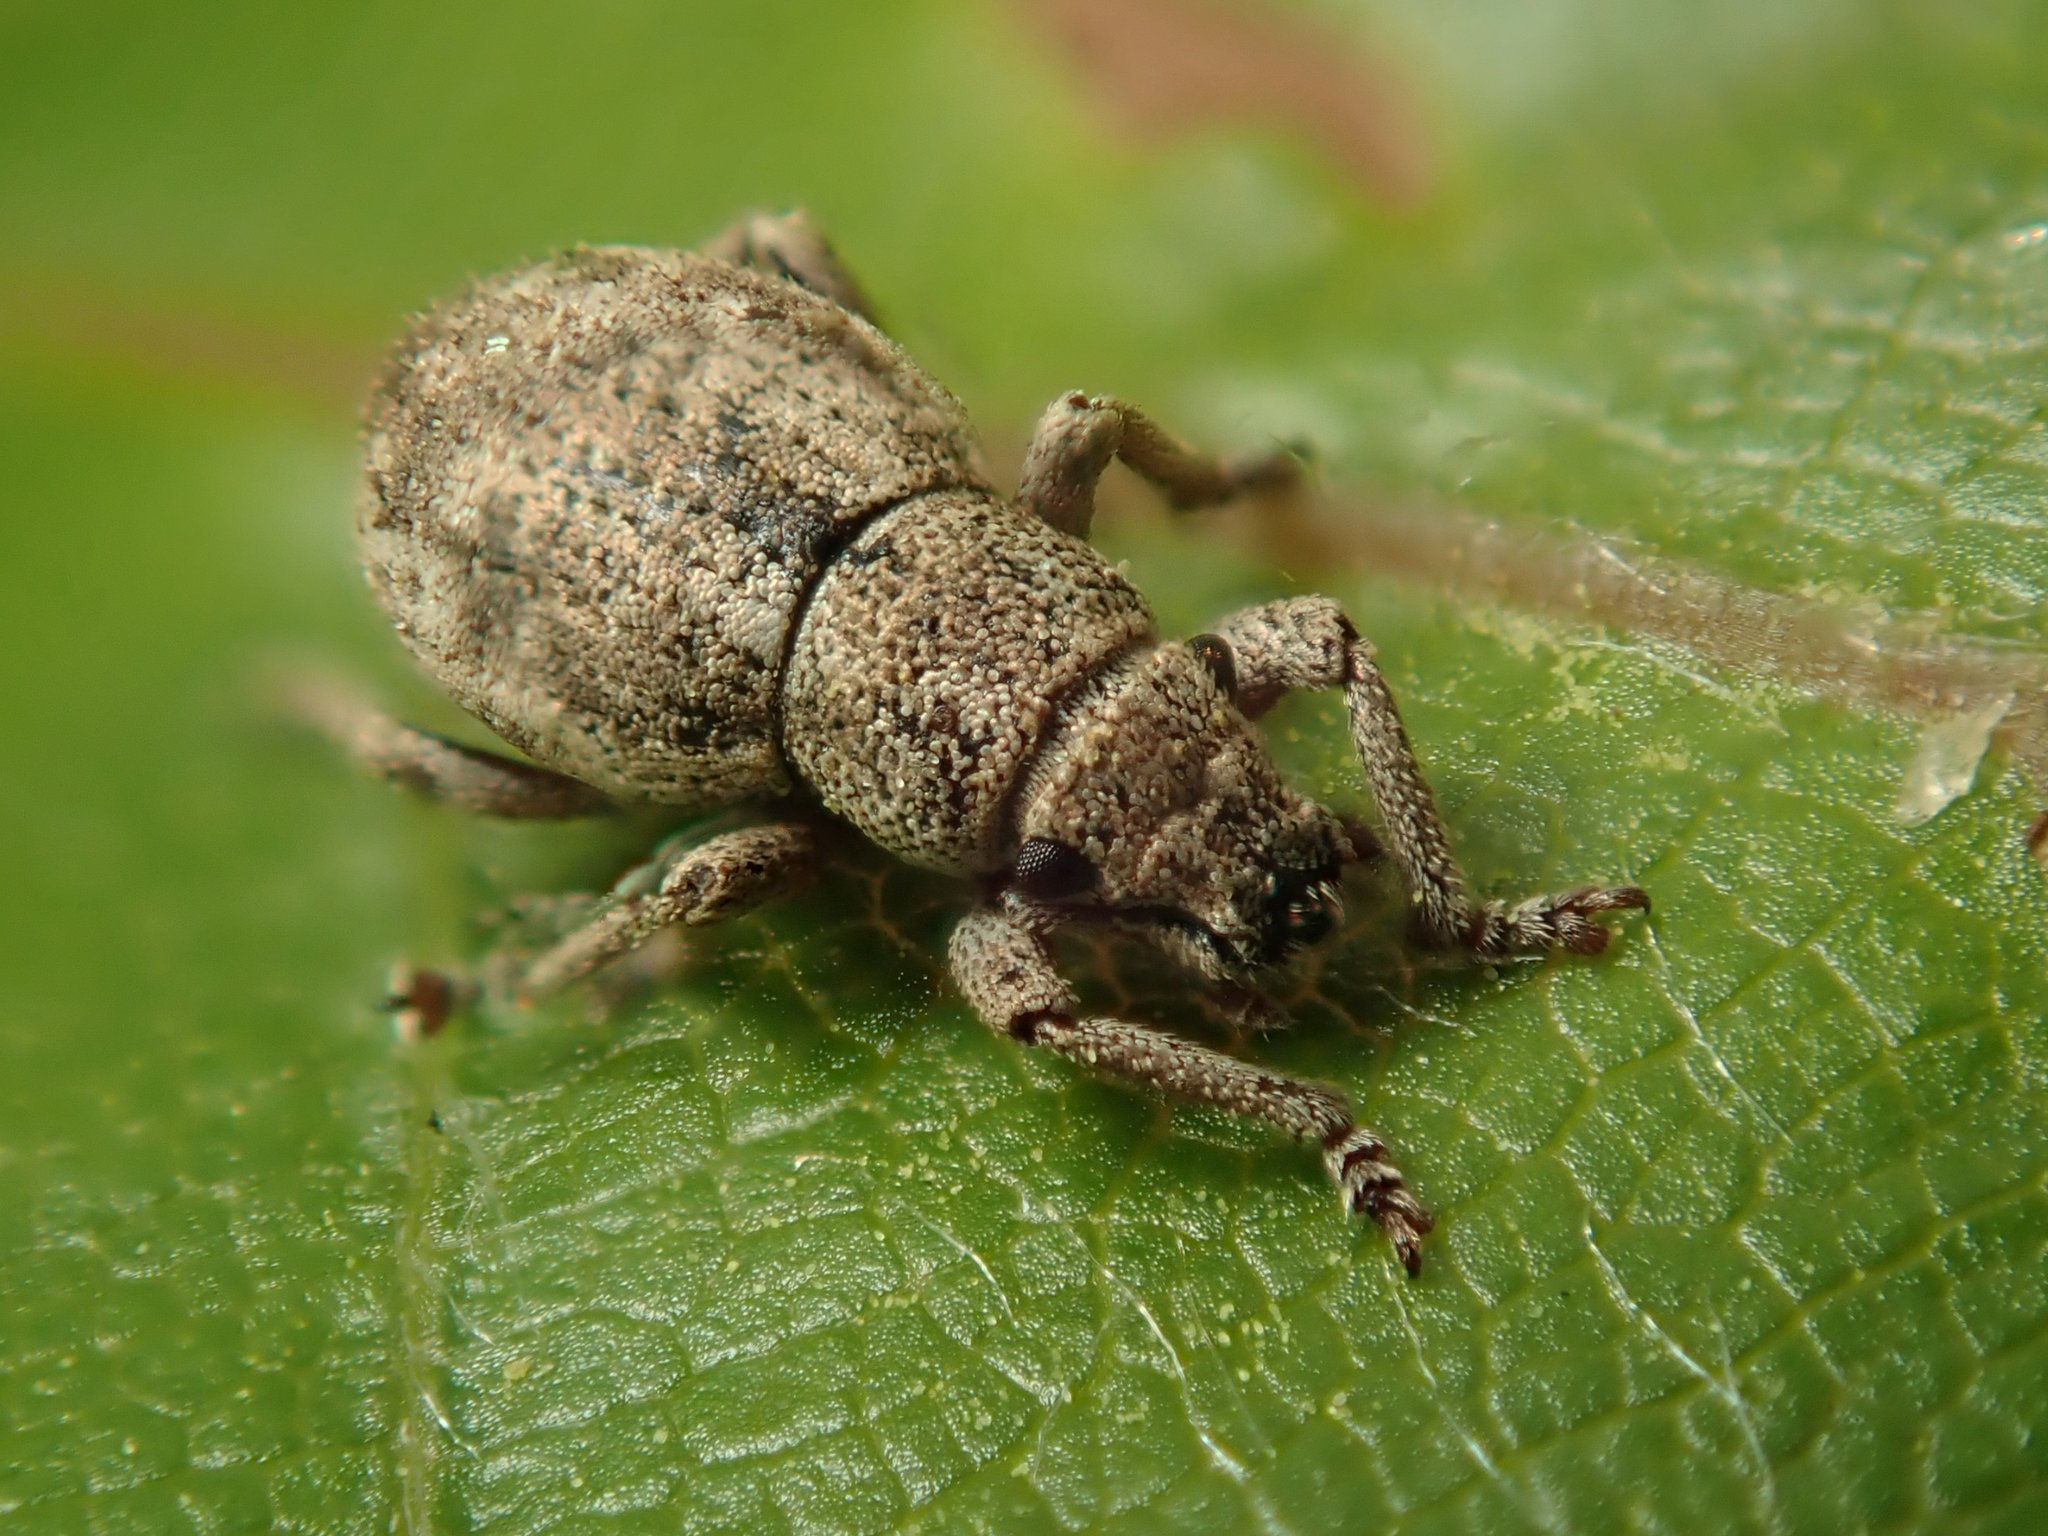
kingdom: Animalia
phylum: Arthropoda
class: Insecta
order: Coleoptera
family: Curculionidae
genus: Strophosoma
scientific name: Strophosoma capitatum
